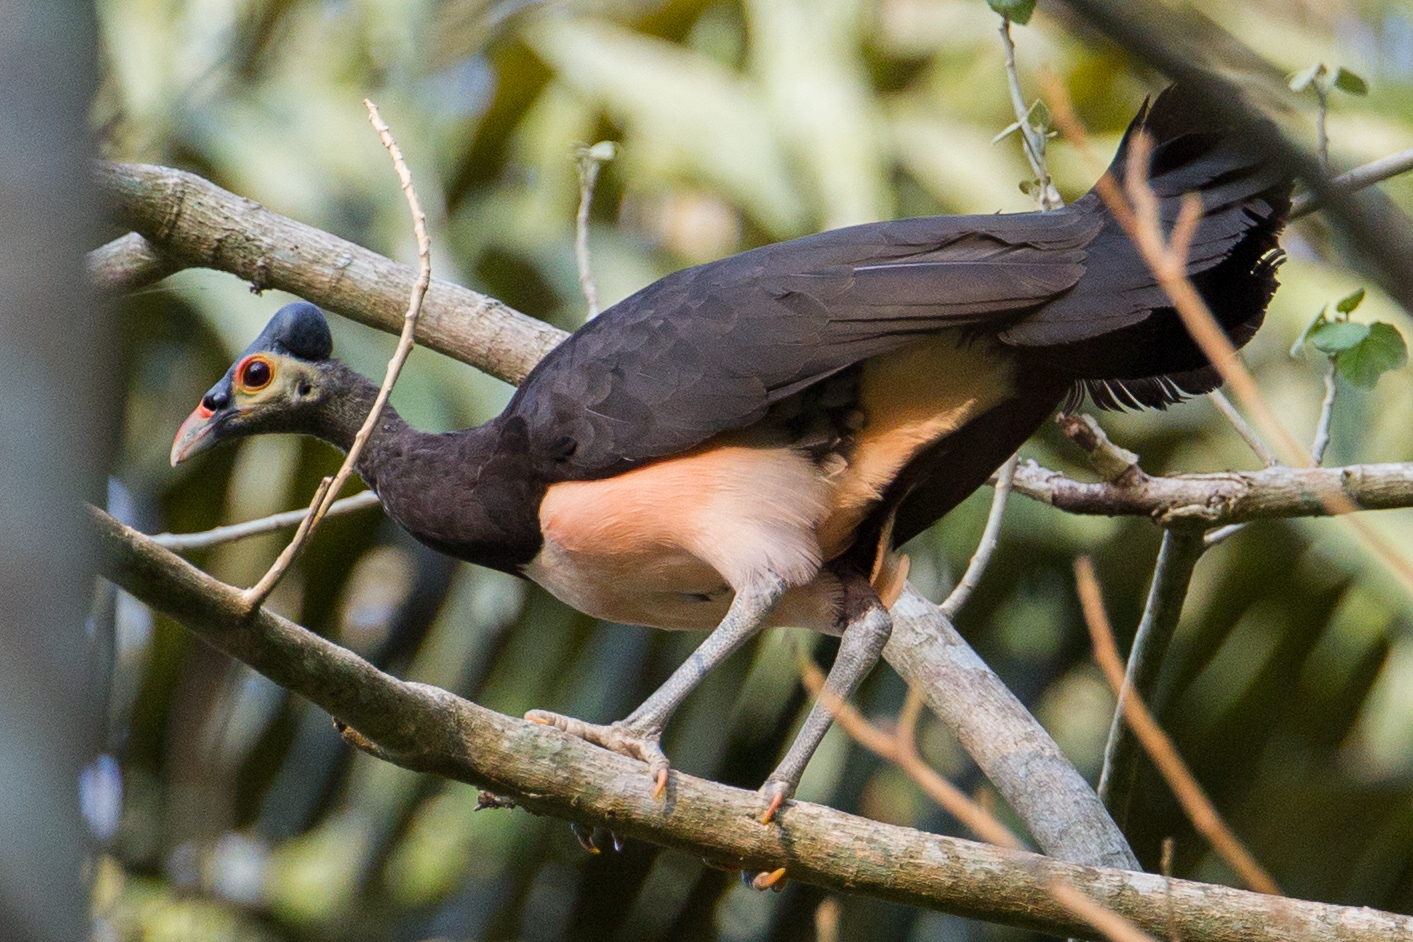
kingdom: Animalia
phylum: Chordata
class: Aves
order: Galliformes
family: Megapodiidae
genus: Macrocephalon
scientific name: Macrocephalon maleo
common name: Maleo
